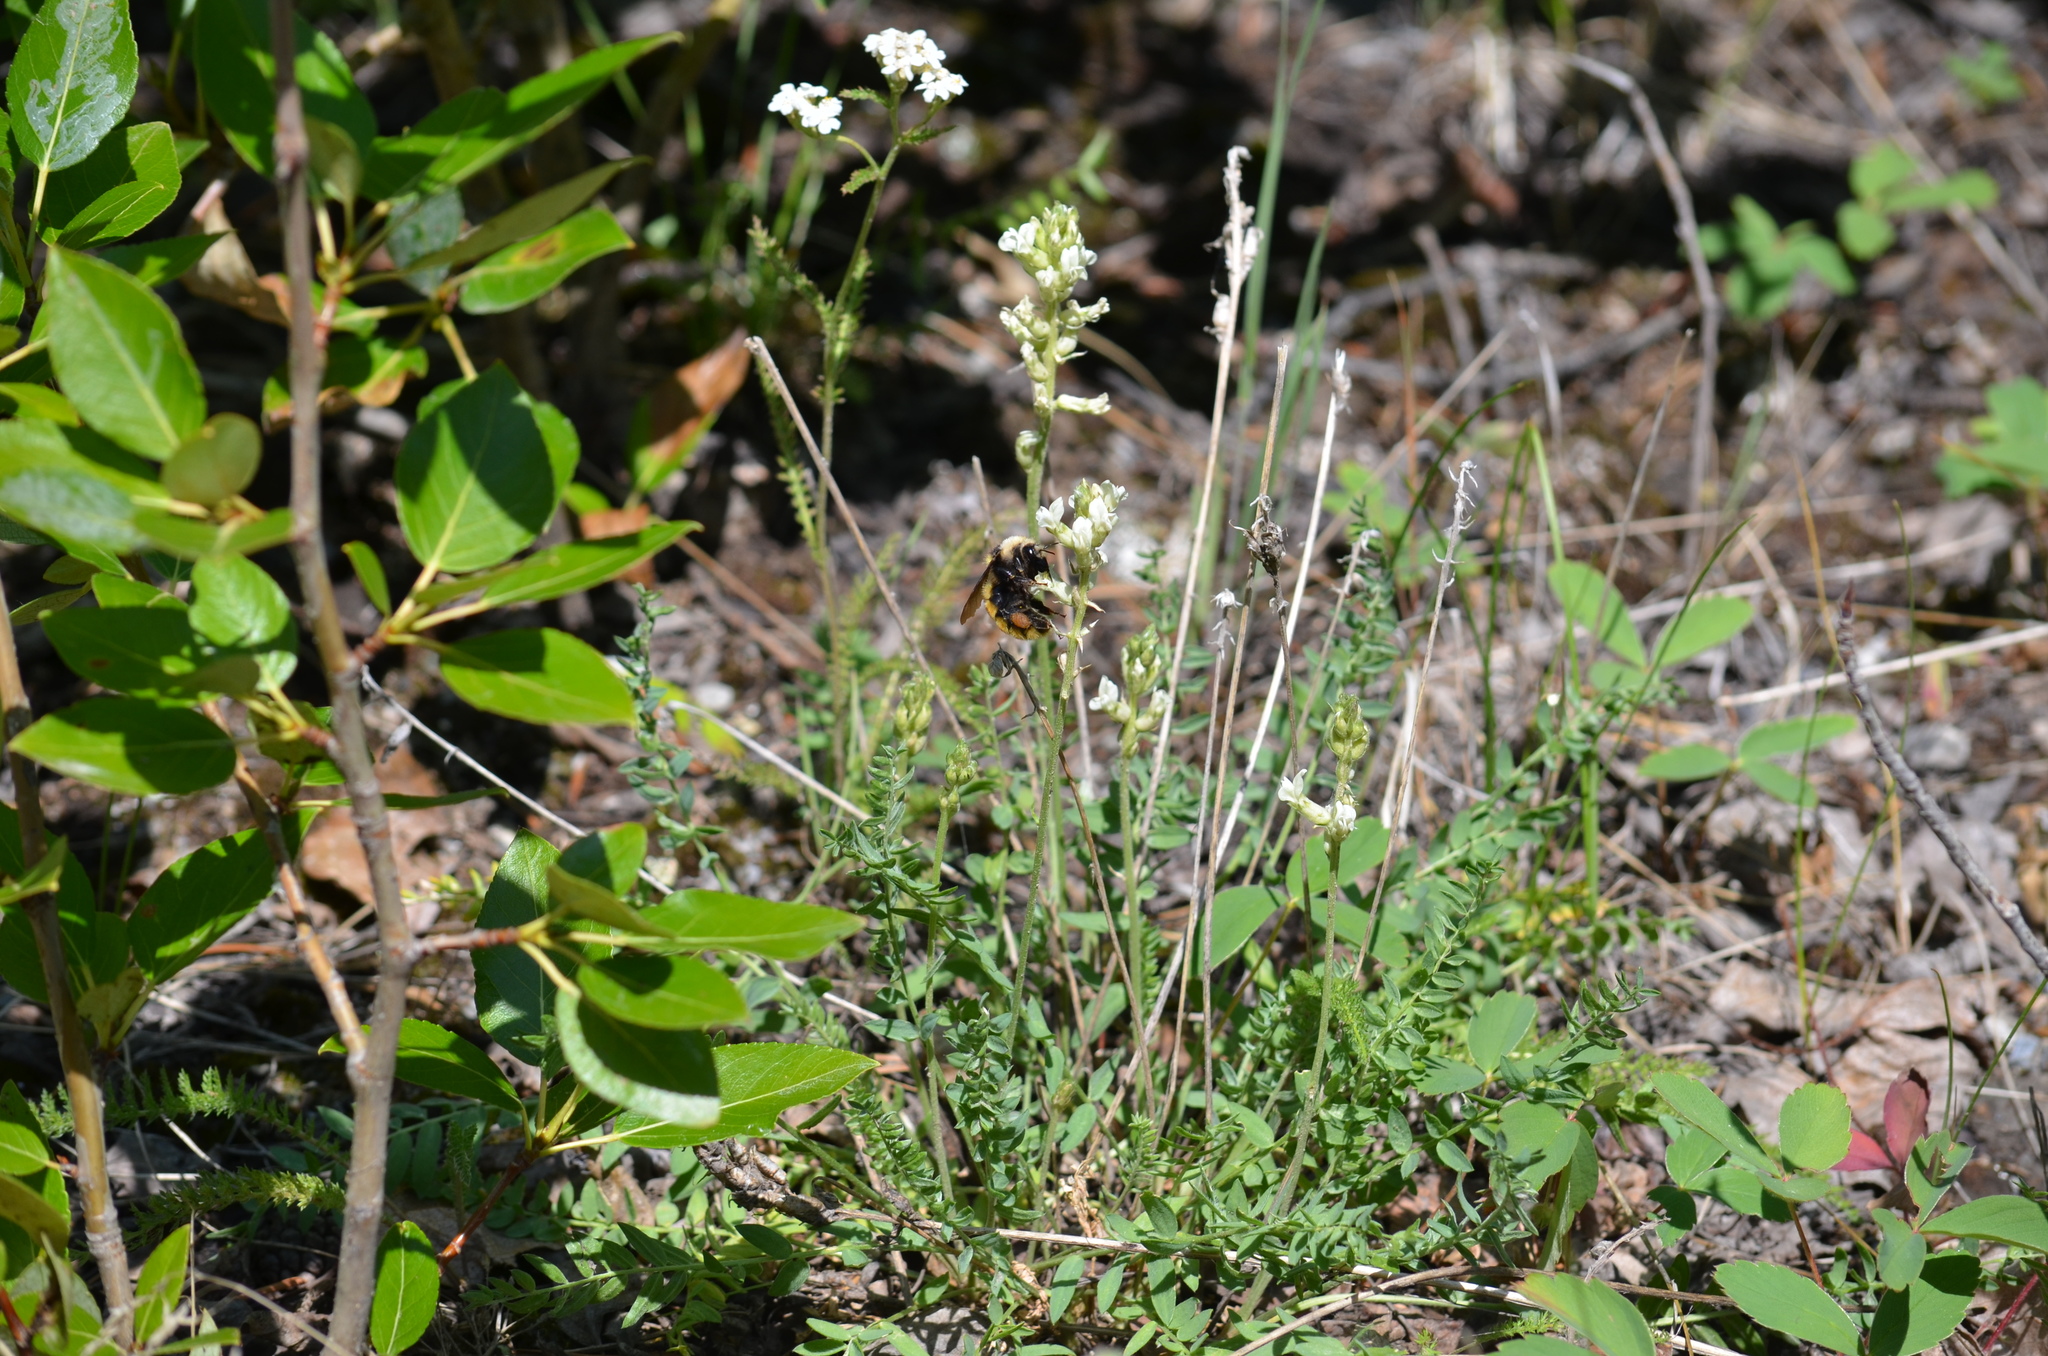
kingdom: Animalia
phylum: Arthropoda
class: Insecta
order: Hymenoptera
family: Apidae
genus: Bombus
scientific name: Bombus appositus
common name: White-shouldered bumble bee
